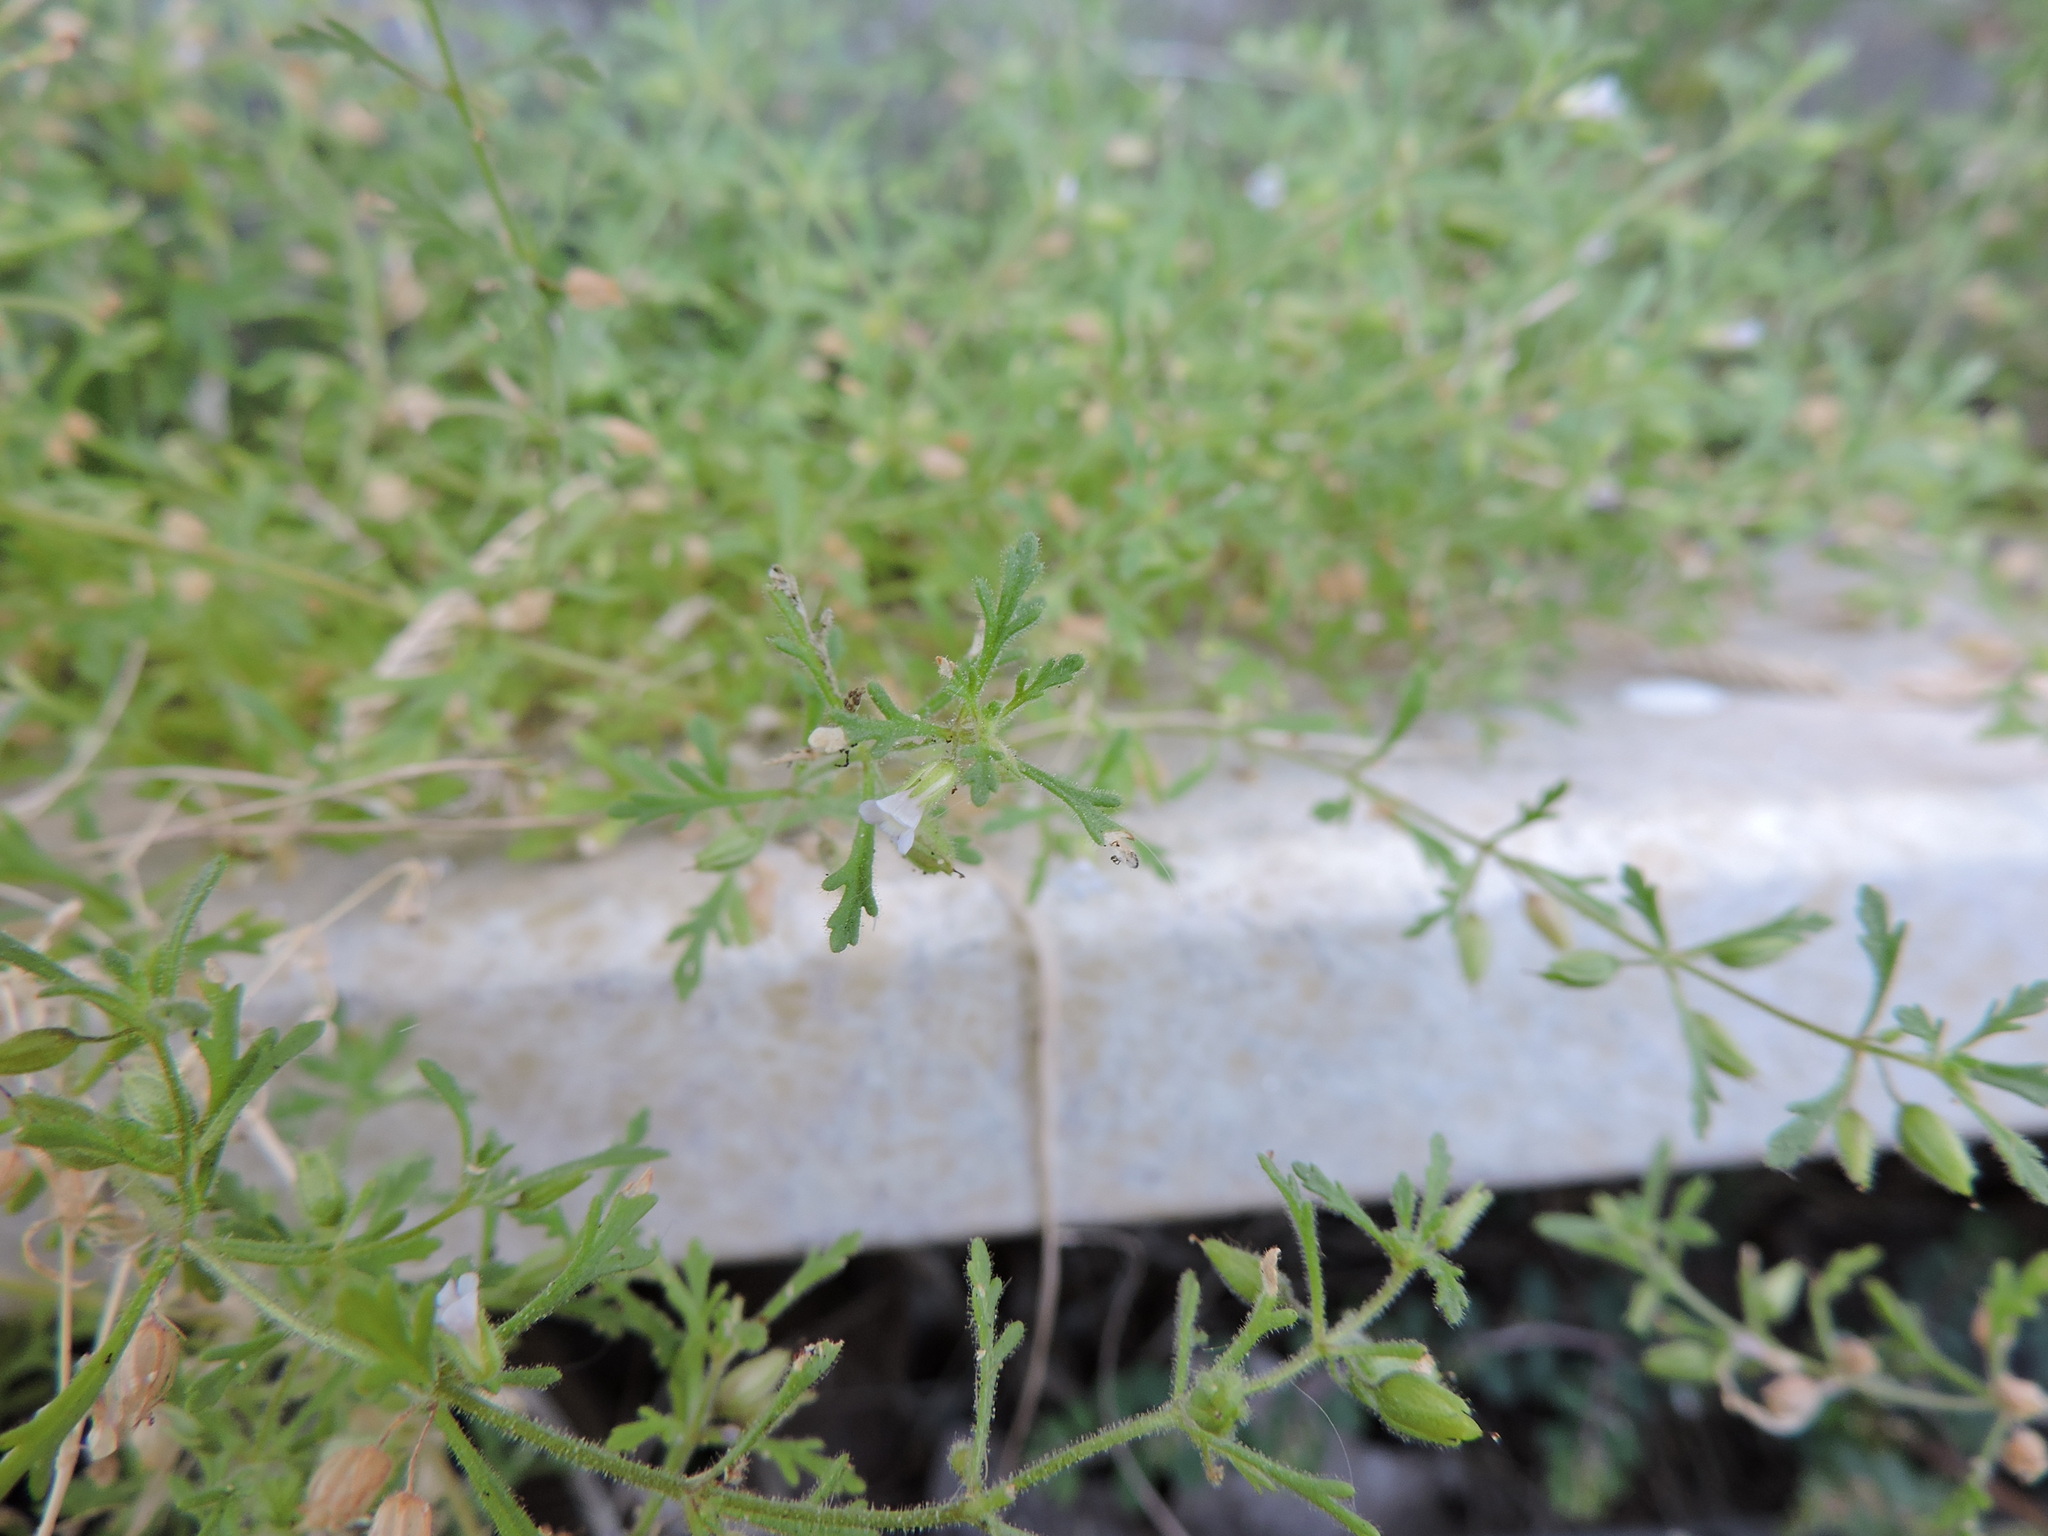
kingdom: Plantae
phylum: Tracheophyta
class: Magnoliopsida
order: Lamiales
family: Plantaginaceae
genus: Leucospora
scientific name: Leucospora multifida
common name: Narrow-leaf paleseed
